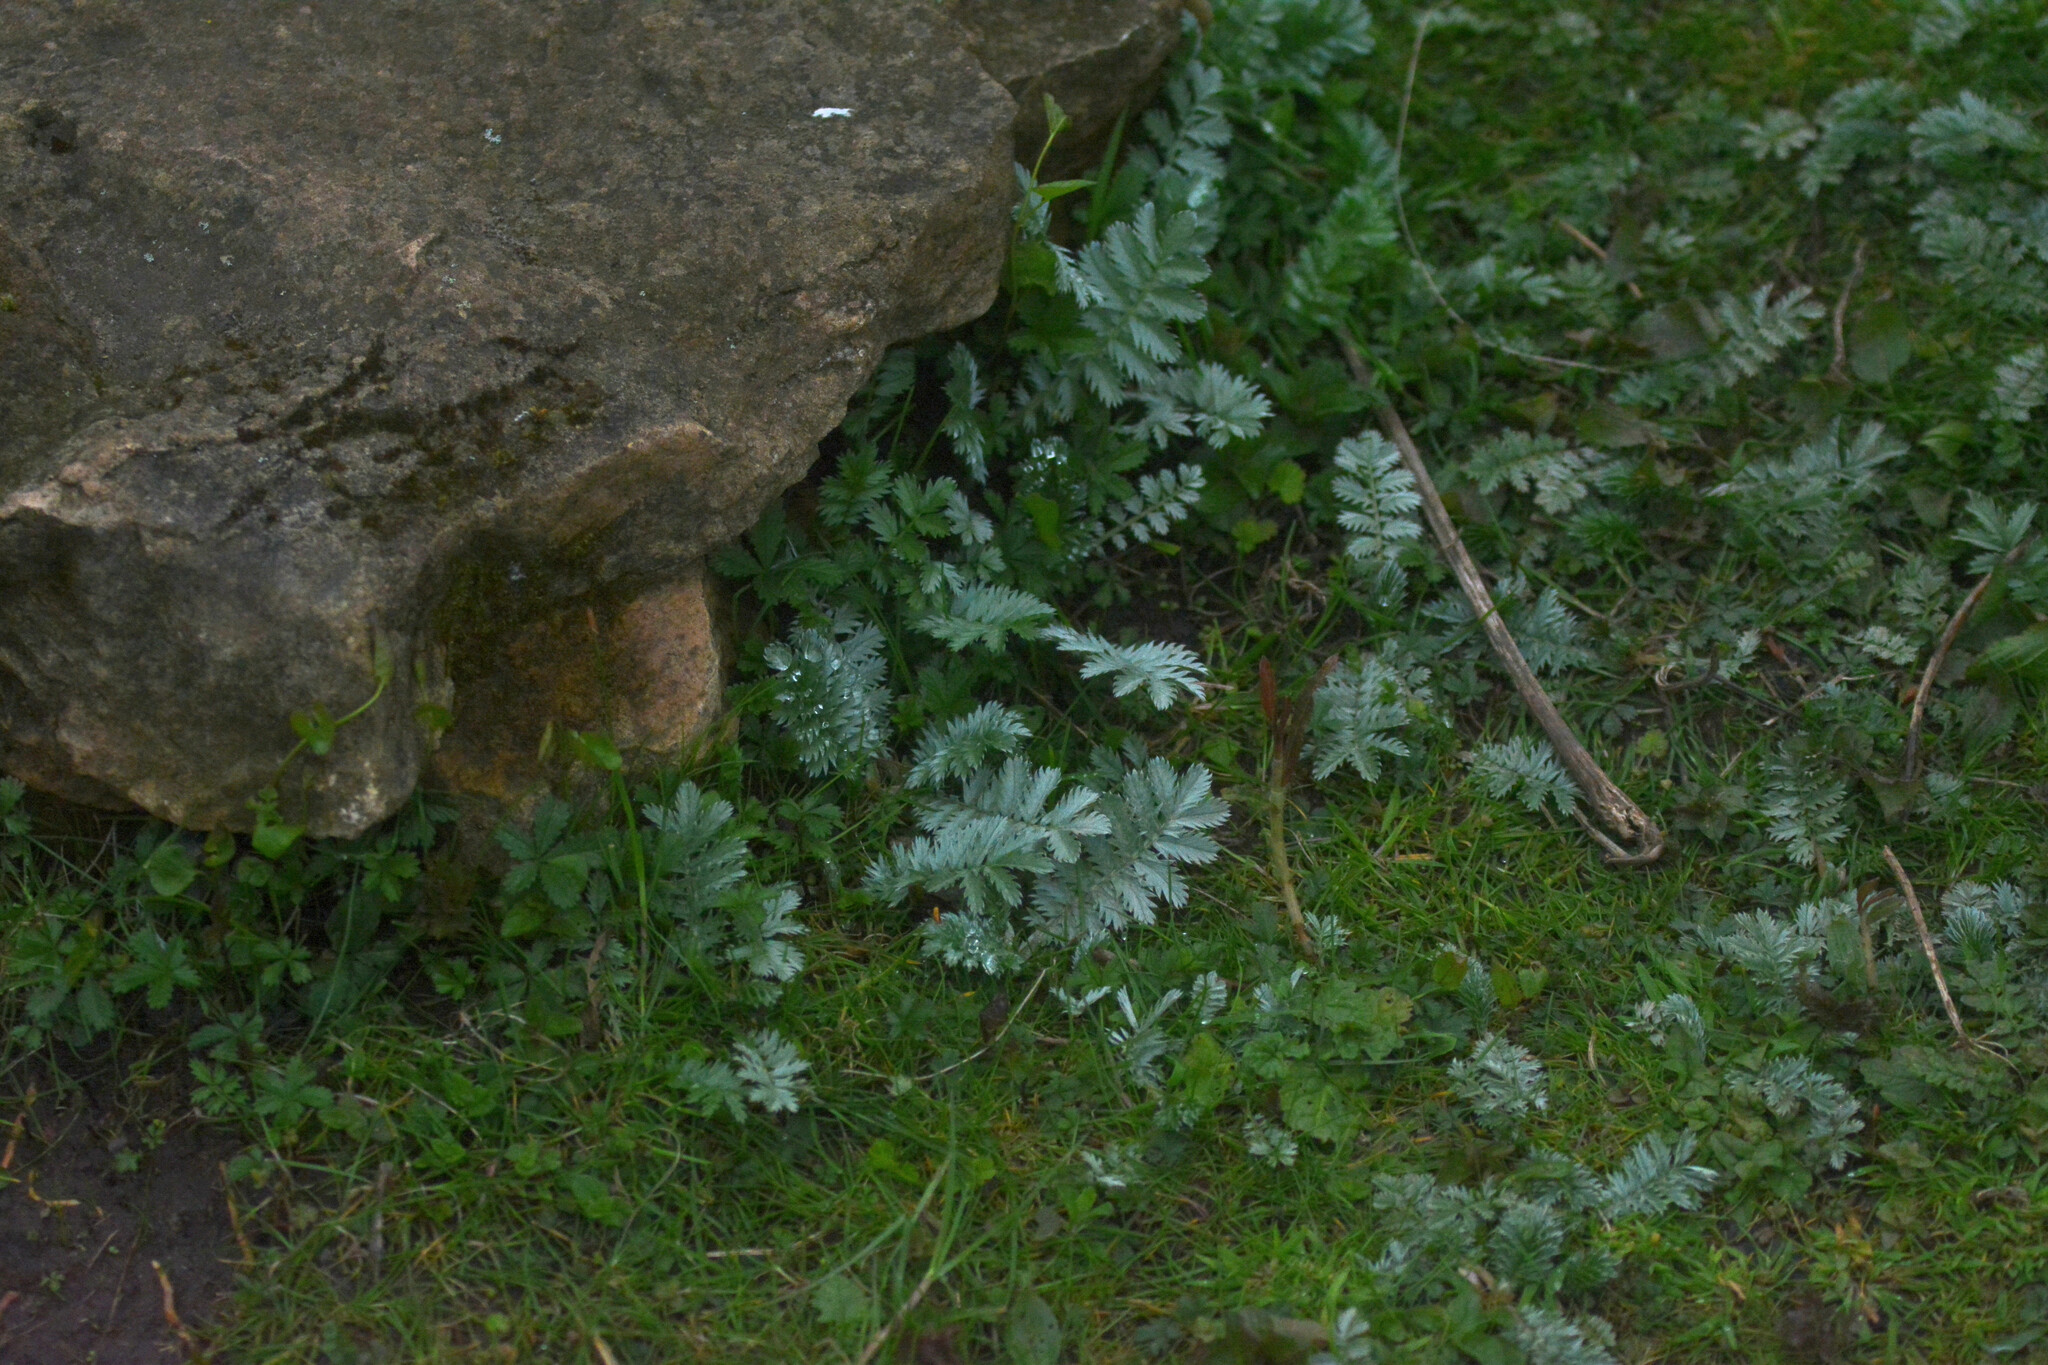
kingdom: Plantae
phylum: Tracheophyta
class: Magnoliopsida
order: Rosales
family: Rosaceae
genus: Argentina
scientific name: Argentina anserina
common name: Common silverweed
